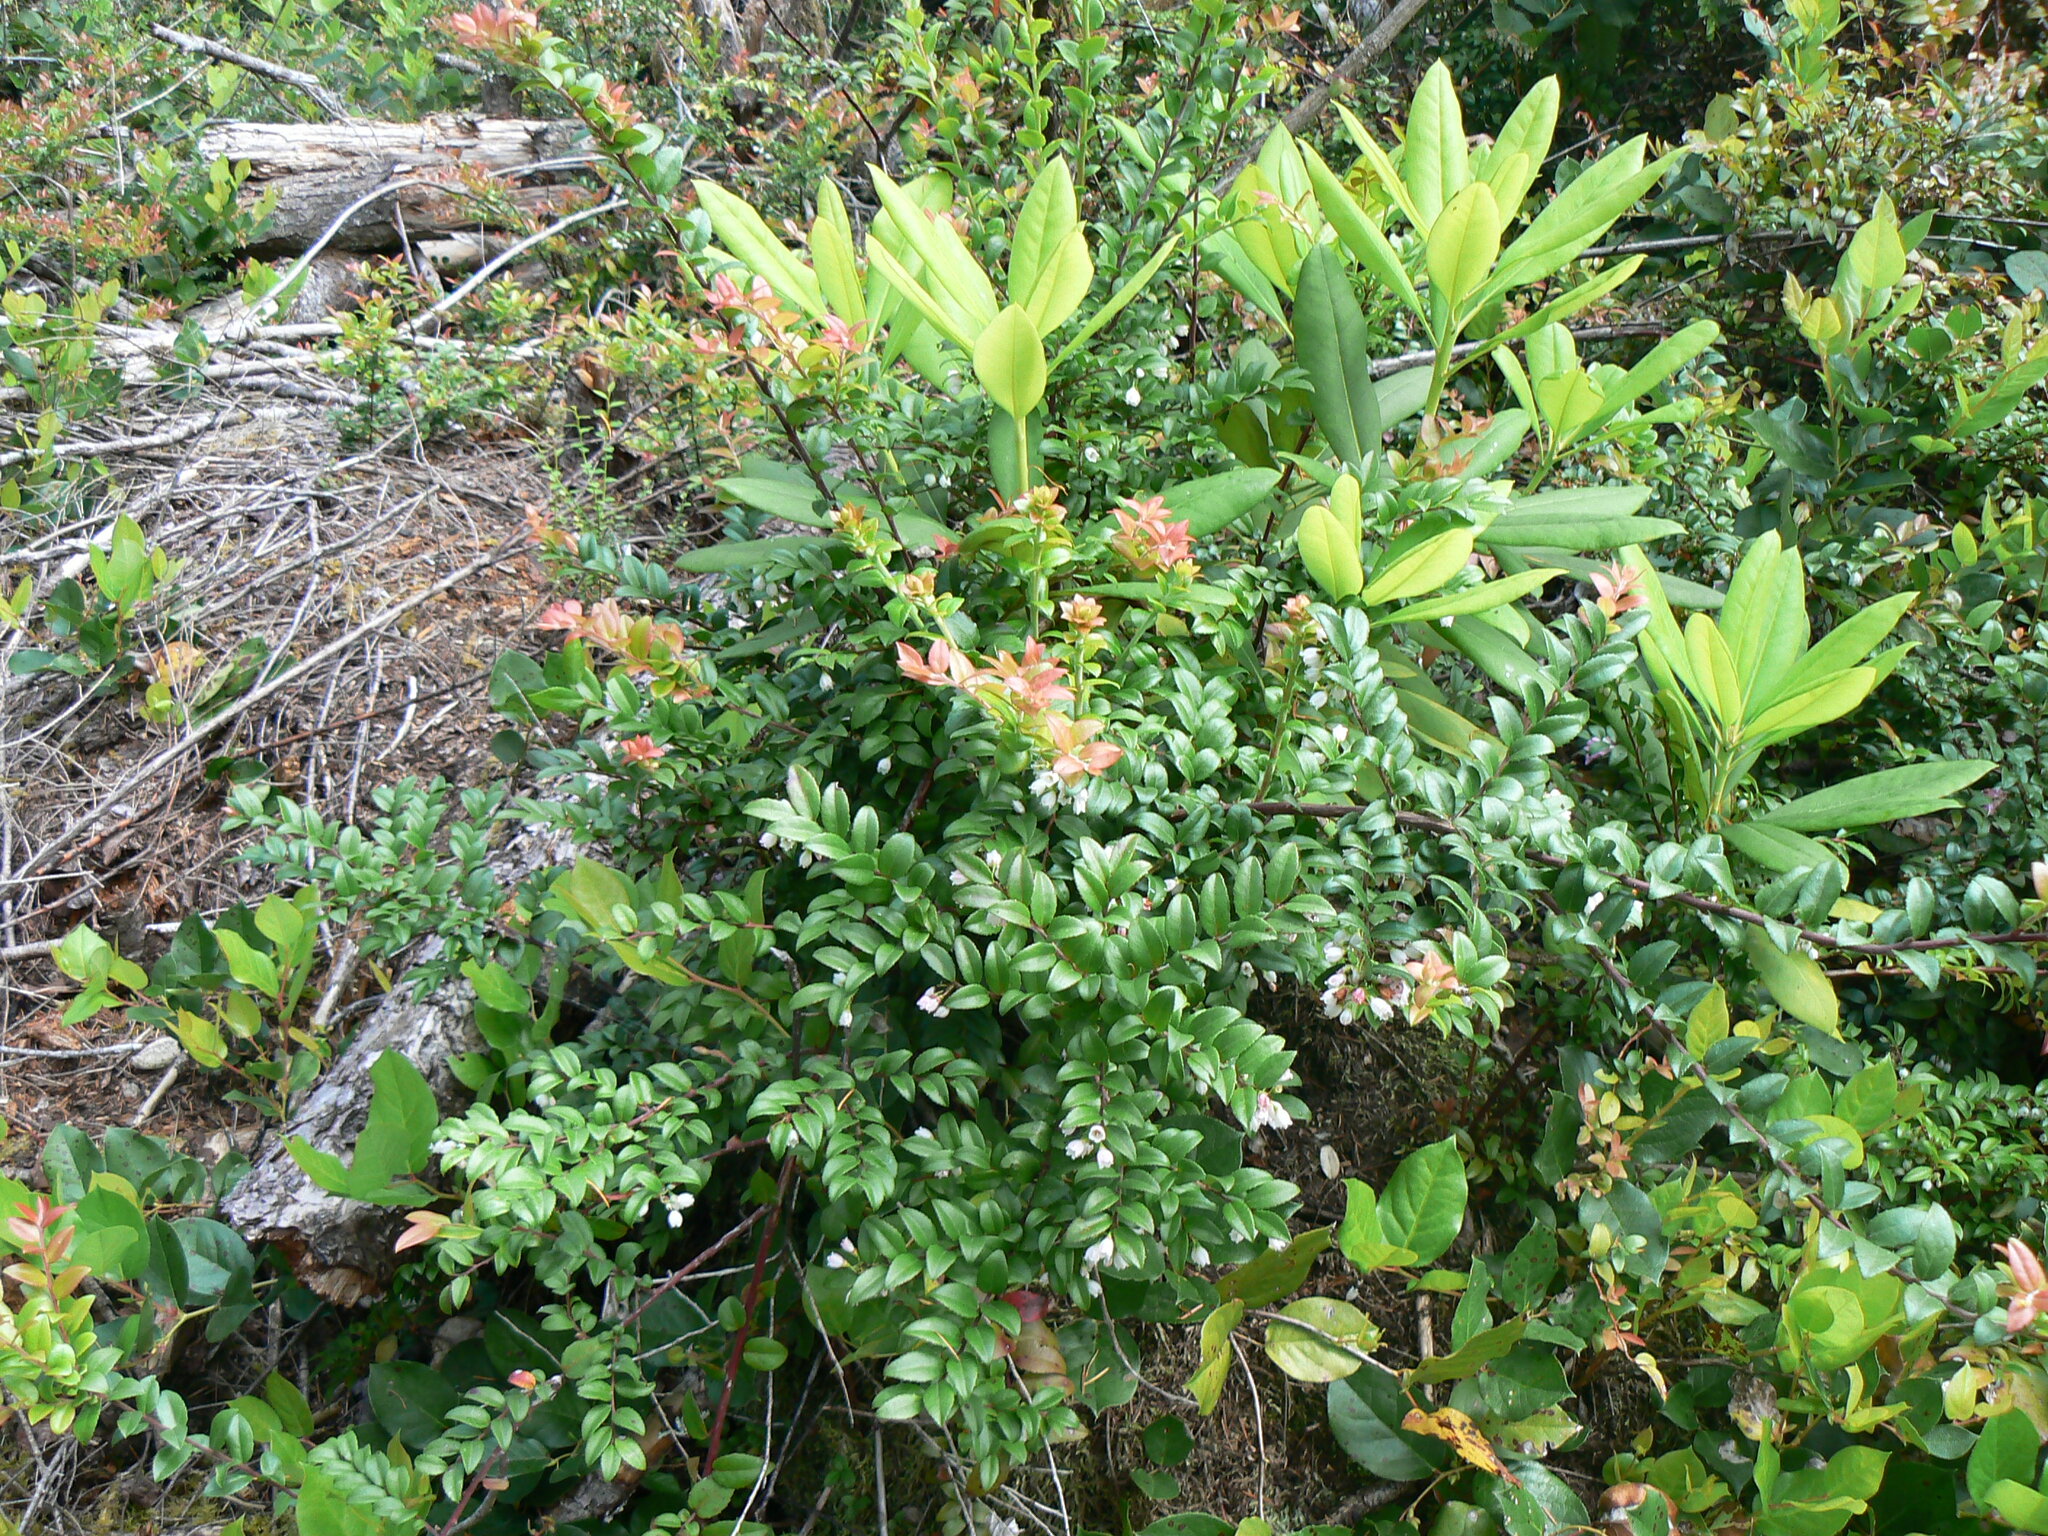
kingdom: Plantae
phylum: Tracheophyta
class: Magnoliopsida
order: Ericales
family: Ericaceae
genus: Vaccinium
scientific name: Vaccinium ovatum
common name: California-huckleberry
